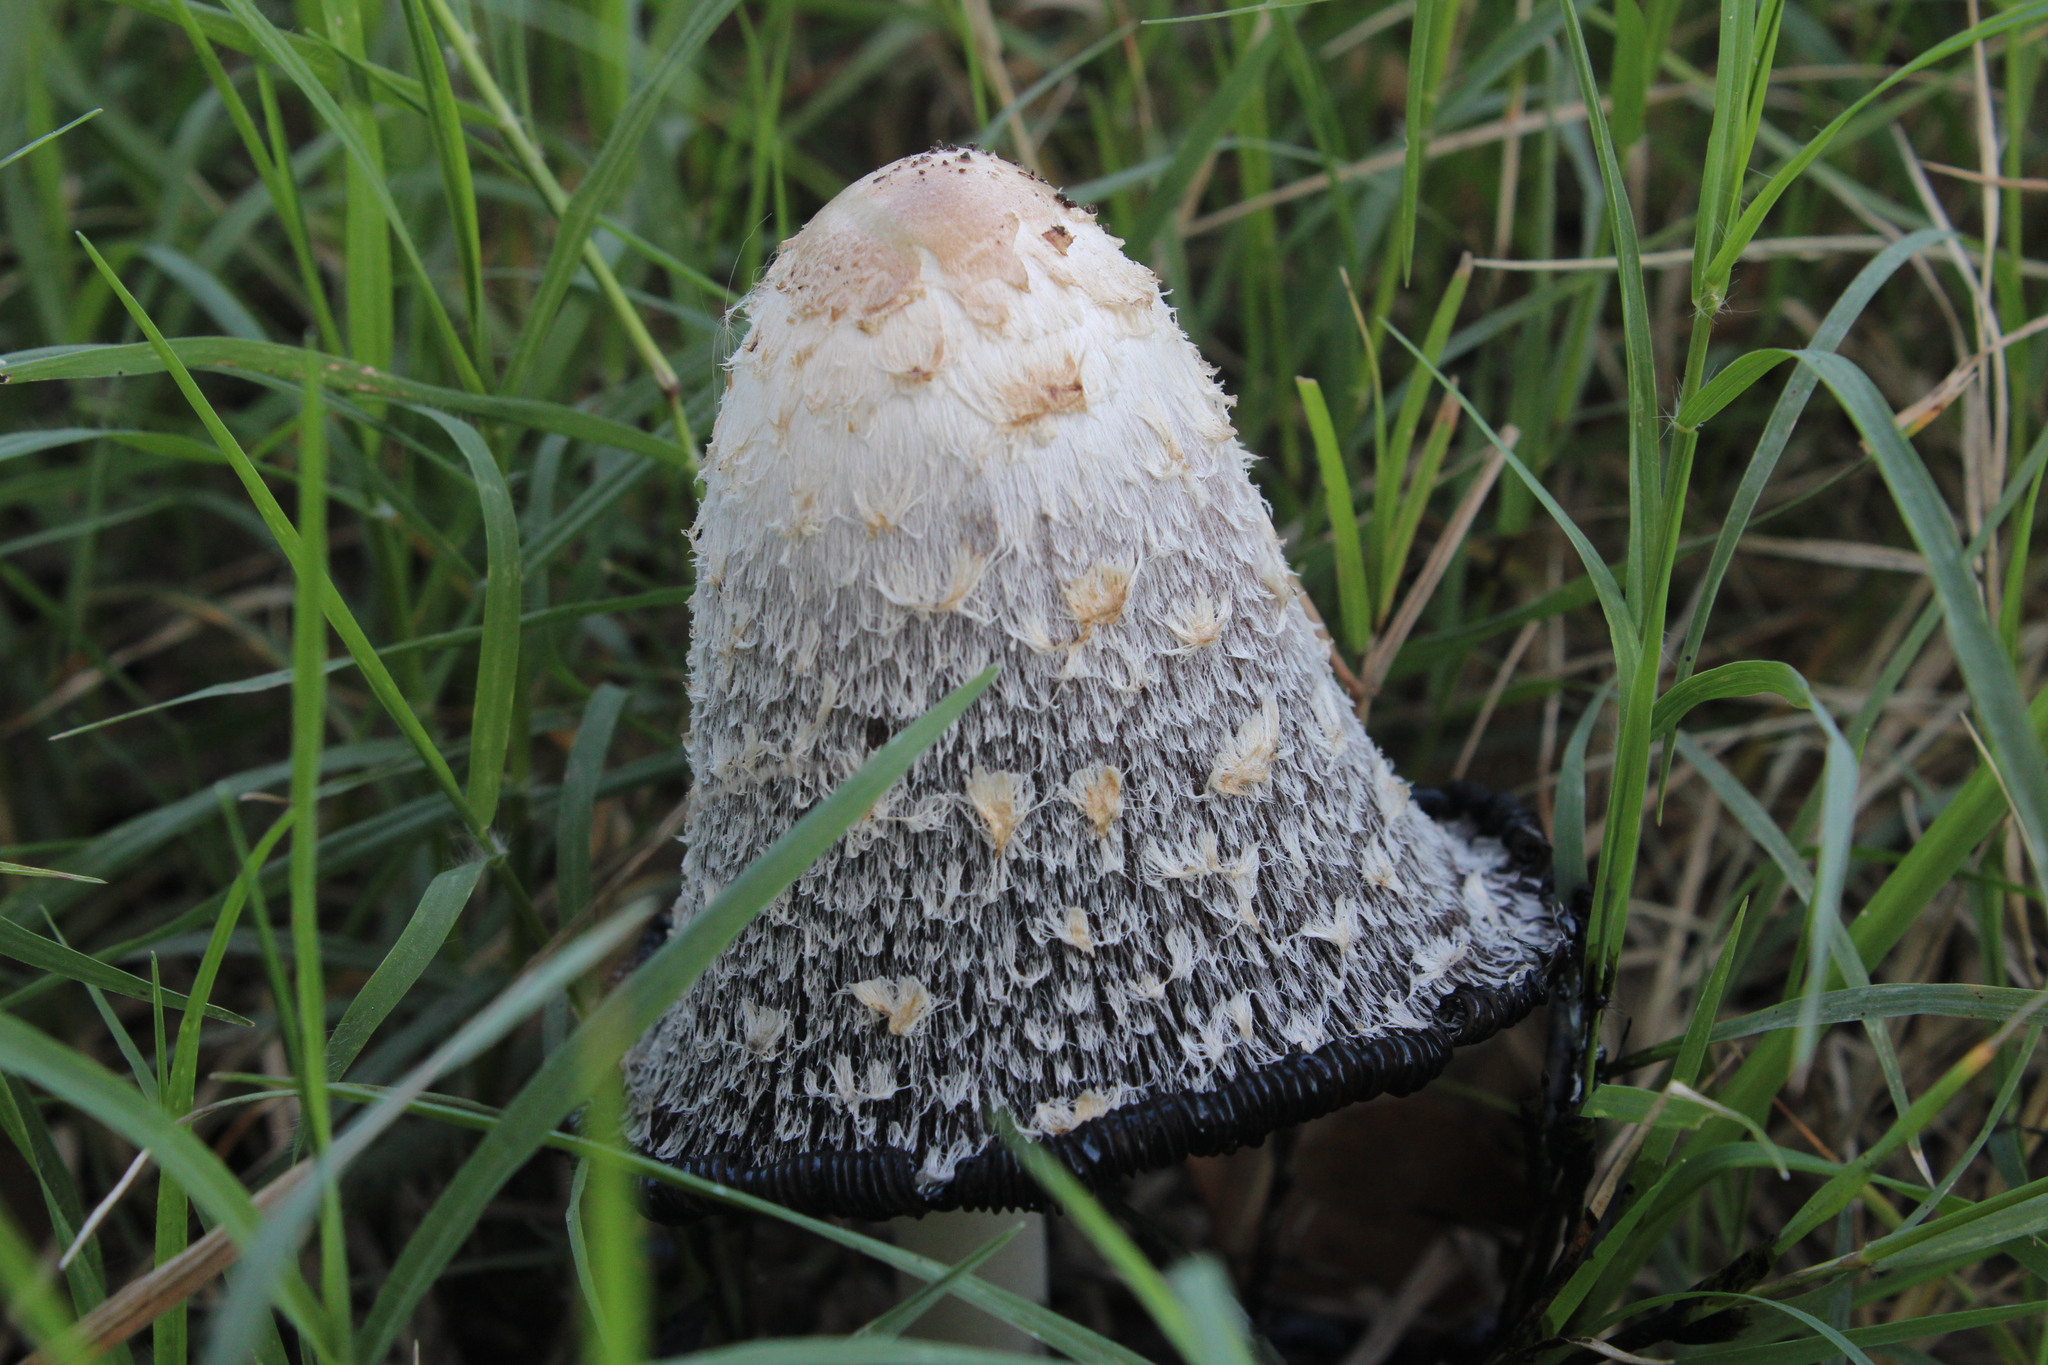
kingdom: Fungi
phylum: Basidiomycota
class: Agaricomycetes
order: Agaricales
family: Agaricaceae
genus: Coprinus
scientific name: Coprinus comatus
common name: Lawyer's wig
